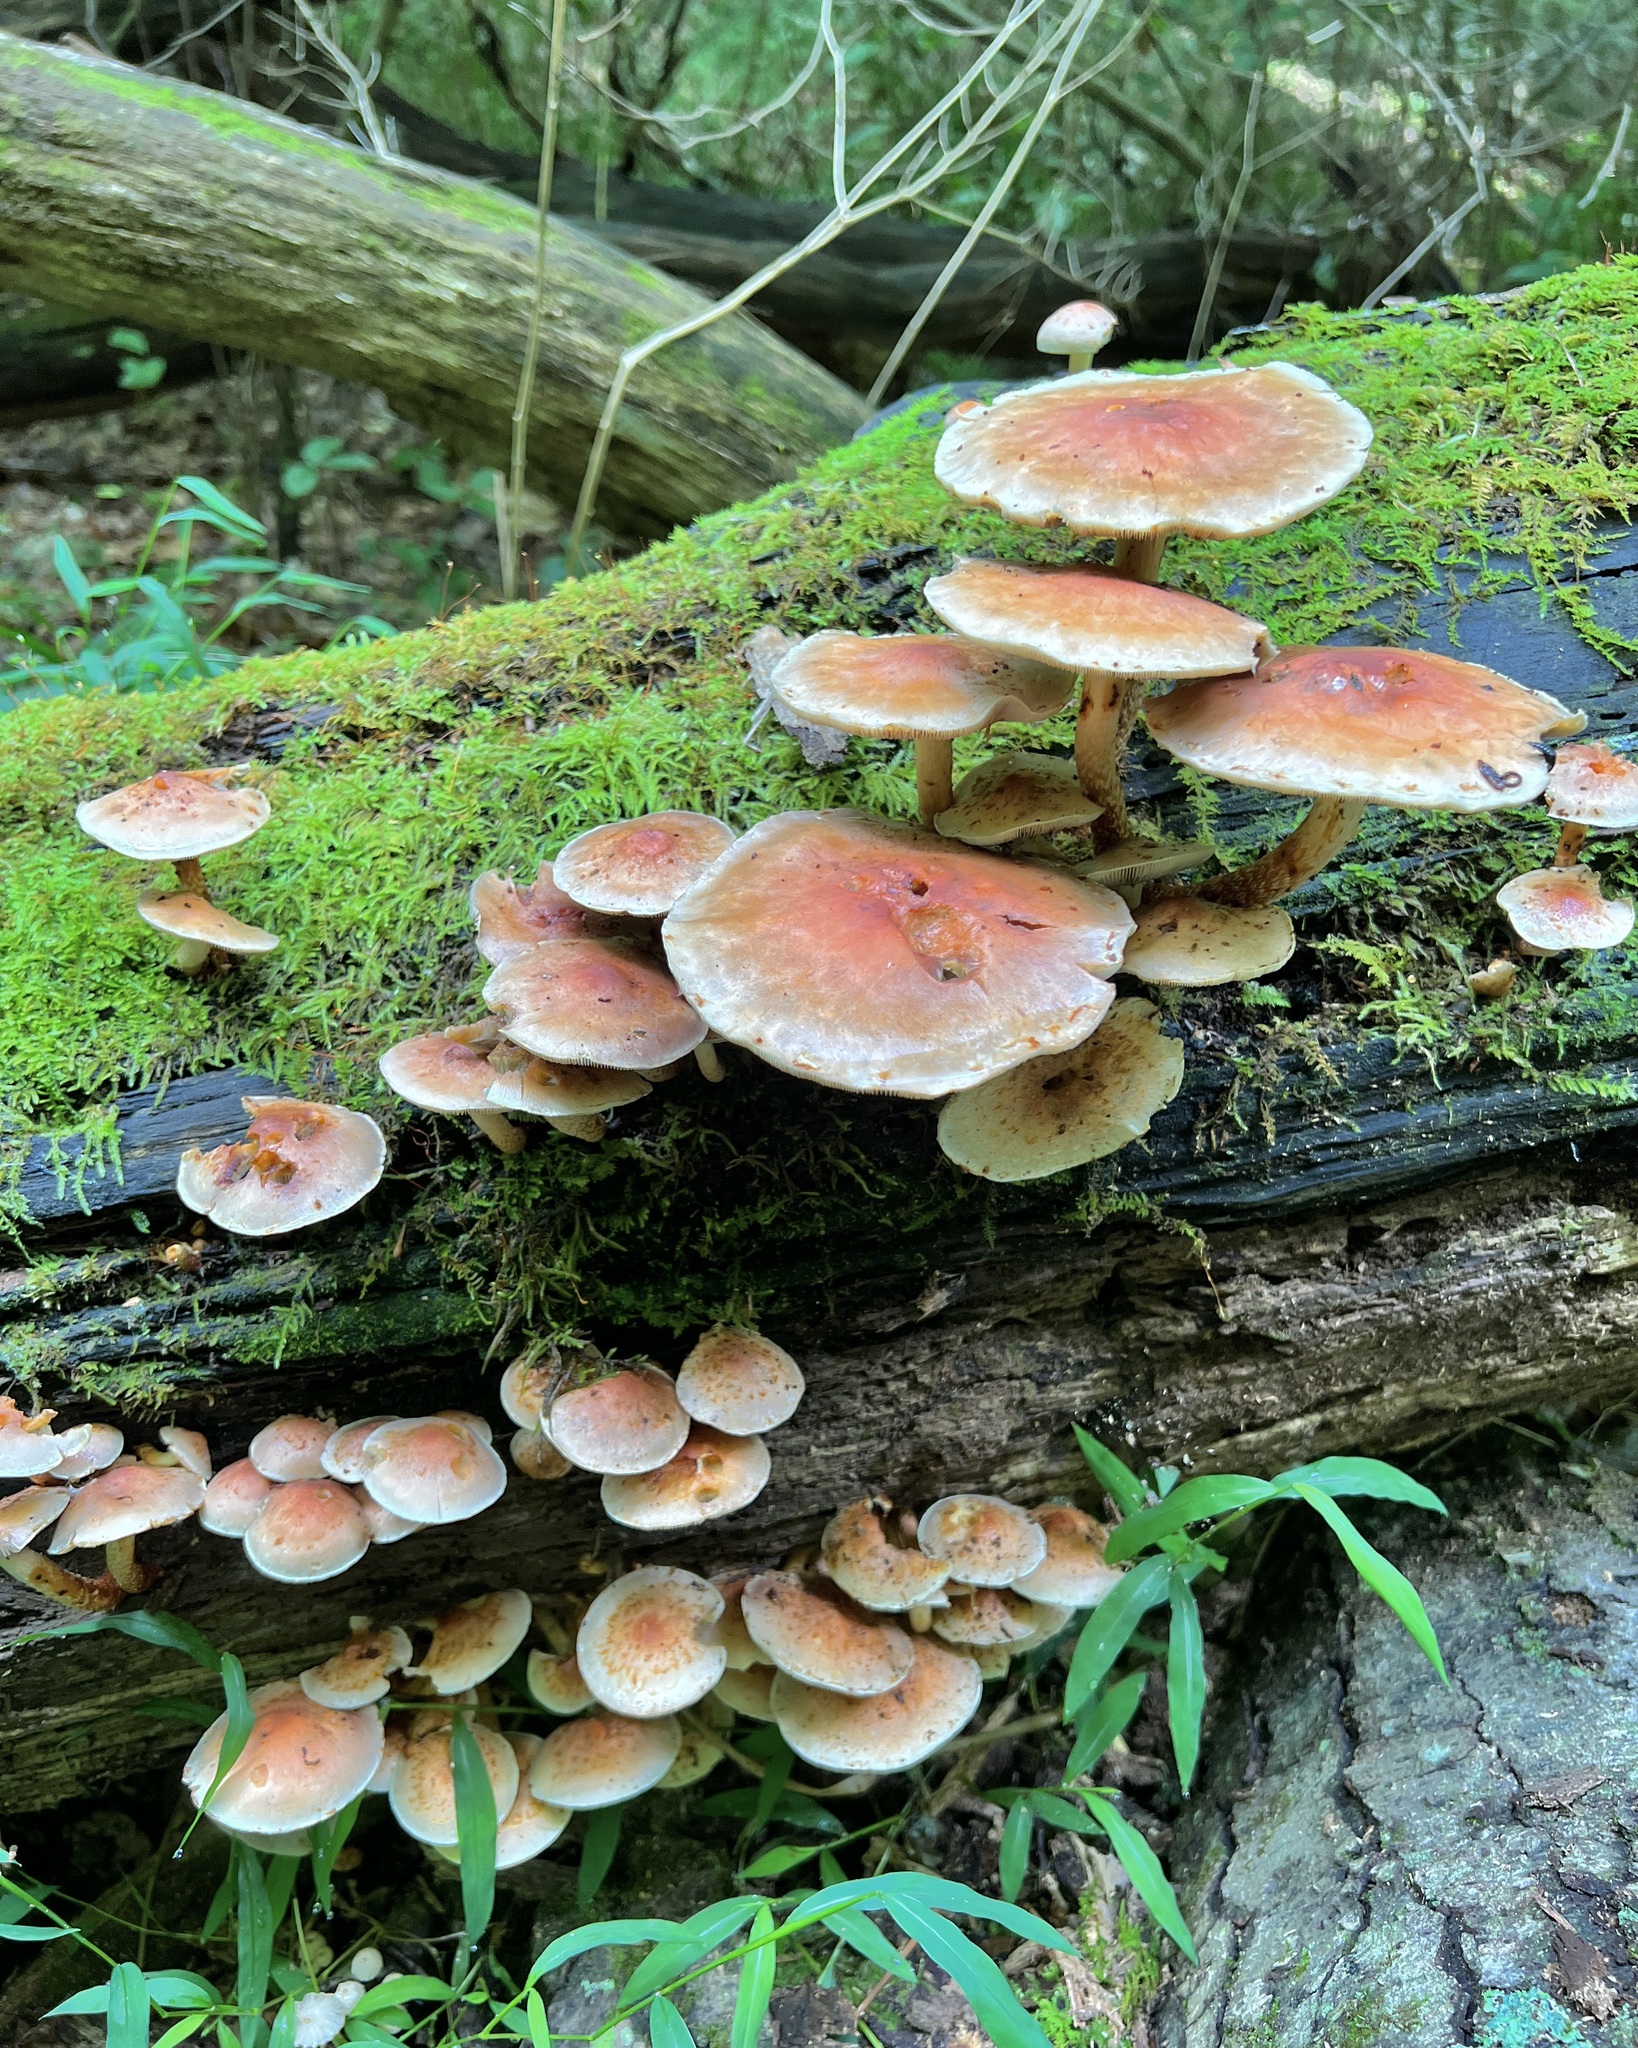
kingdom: Fungi
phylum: Basidiomycota
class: Agaricomycetes
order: Agaricales
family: Strophariaceae
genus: Hypholoma
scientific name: Hypholoma lateritium
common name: Brick caps
